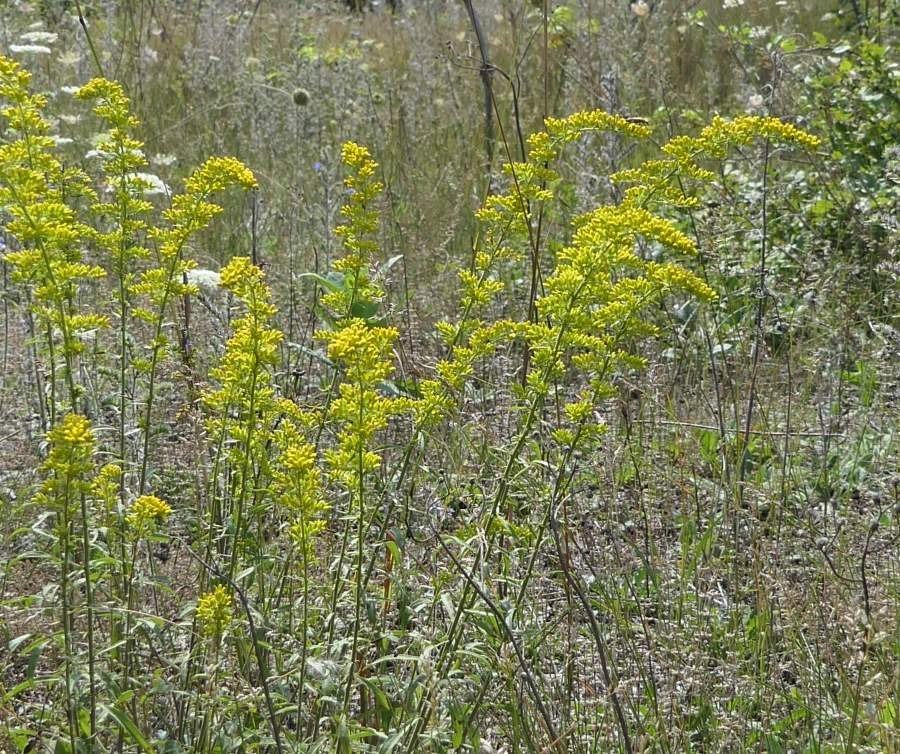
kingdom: Plantae
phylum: Tracheophyta
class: Magnoliopsida
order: Asterales
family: Asteraceae
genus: Solidago
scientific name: Solidago nemoralis
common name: Grey goldenrod
